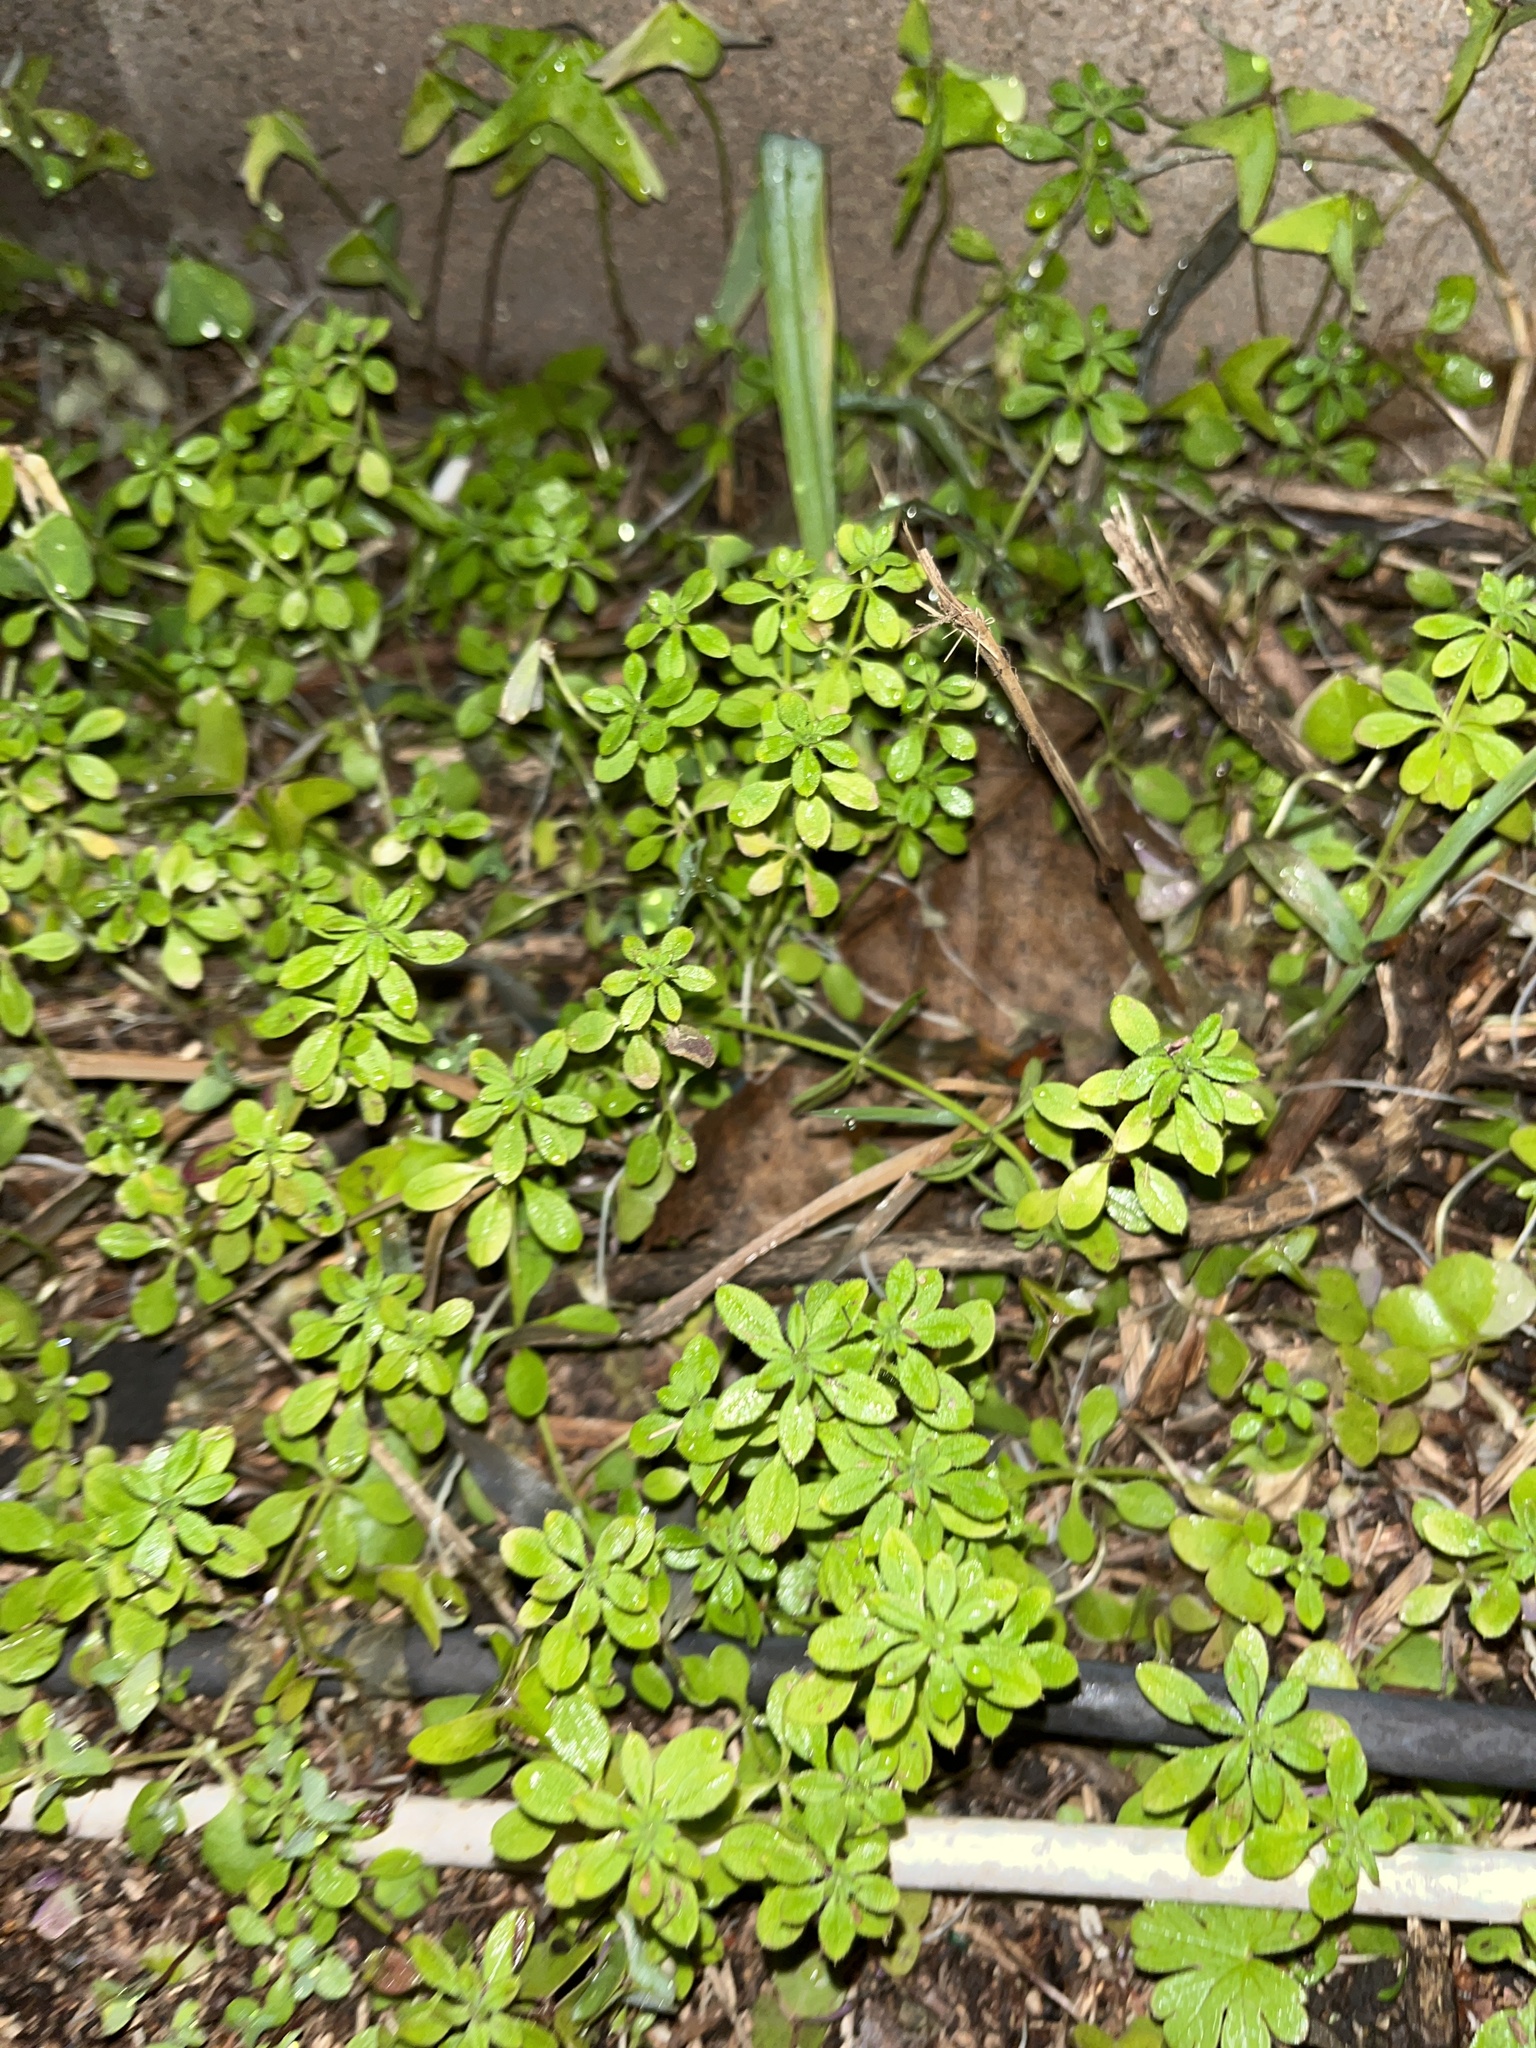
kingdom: Plantae
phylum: Tracheophyta
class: Magnoliopsida
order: Gentianales
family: Rubiaceae
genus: Galium
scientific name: Galium aparine
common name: Cleavers
